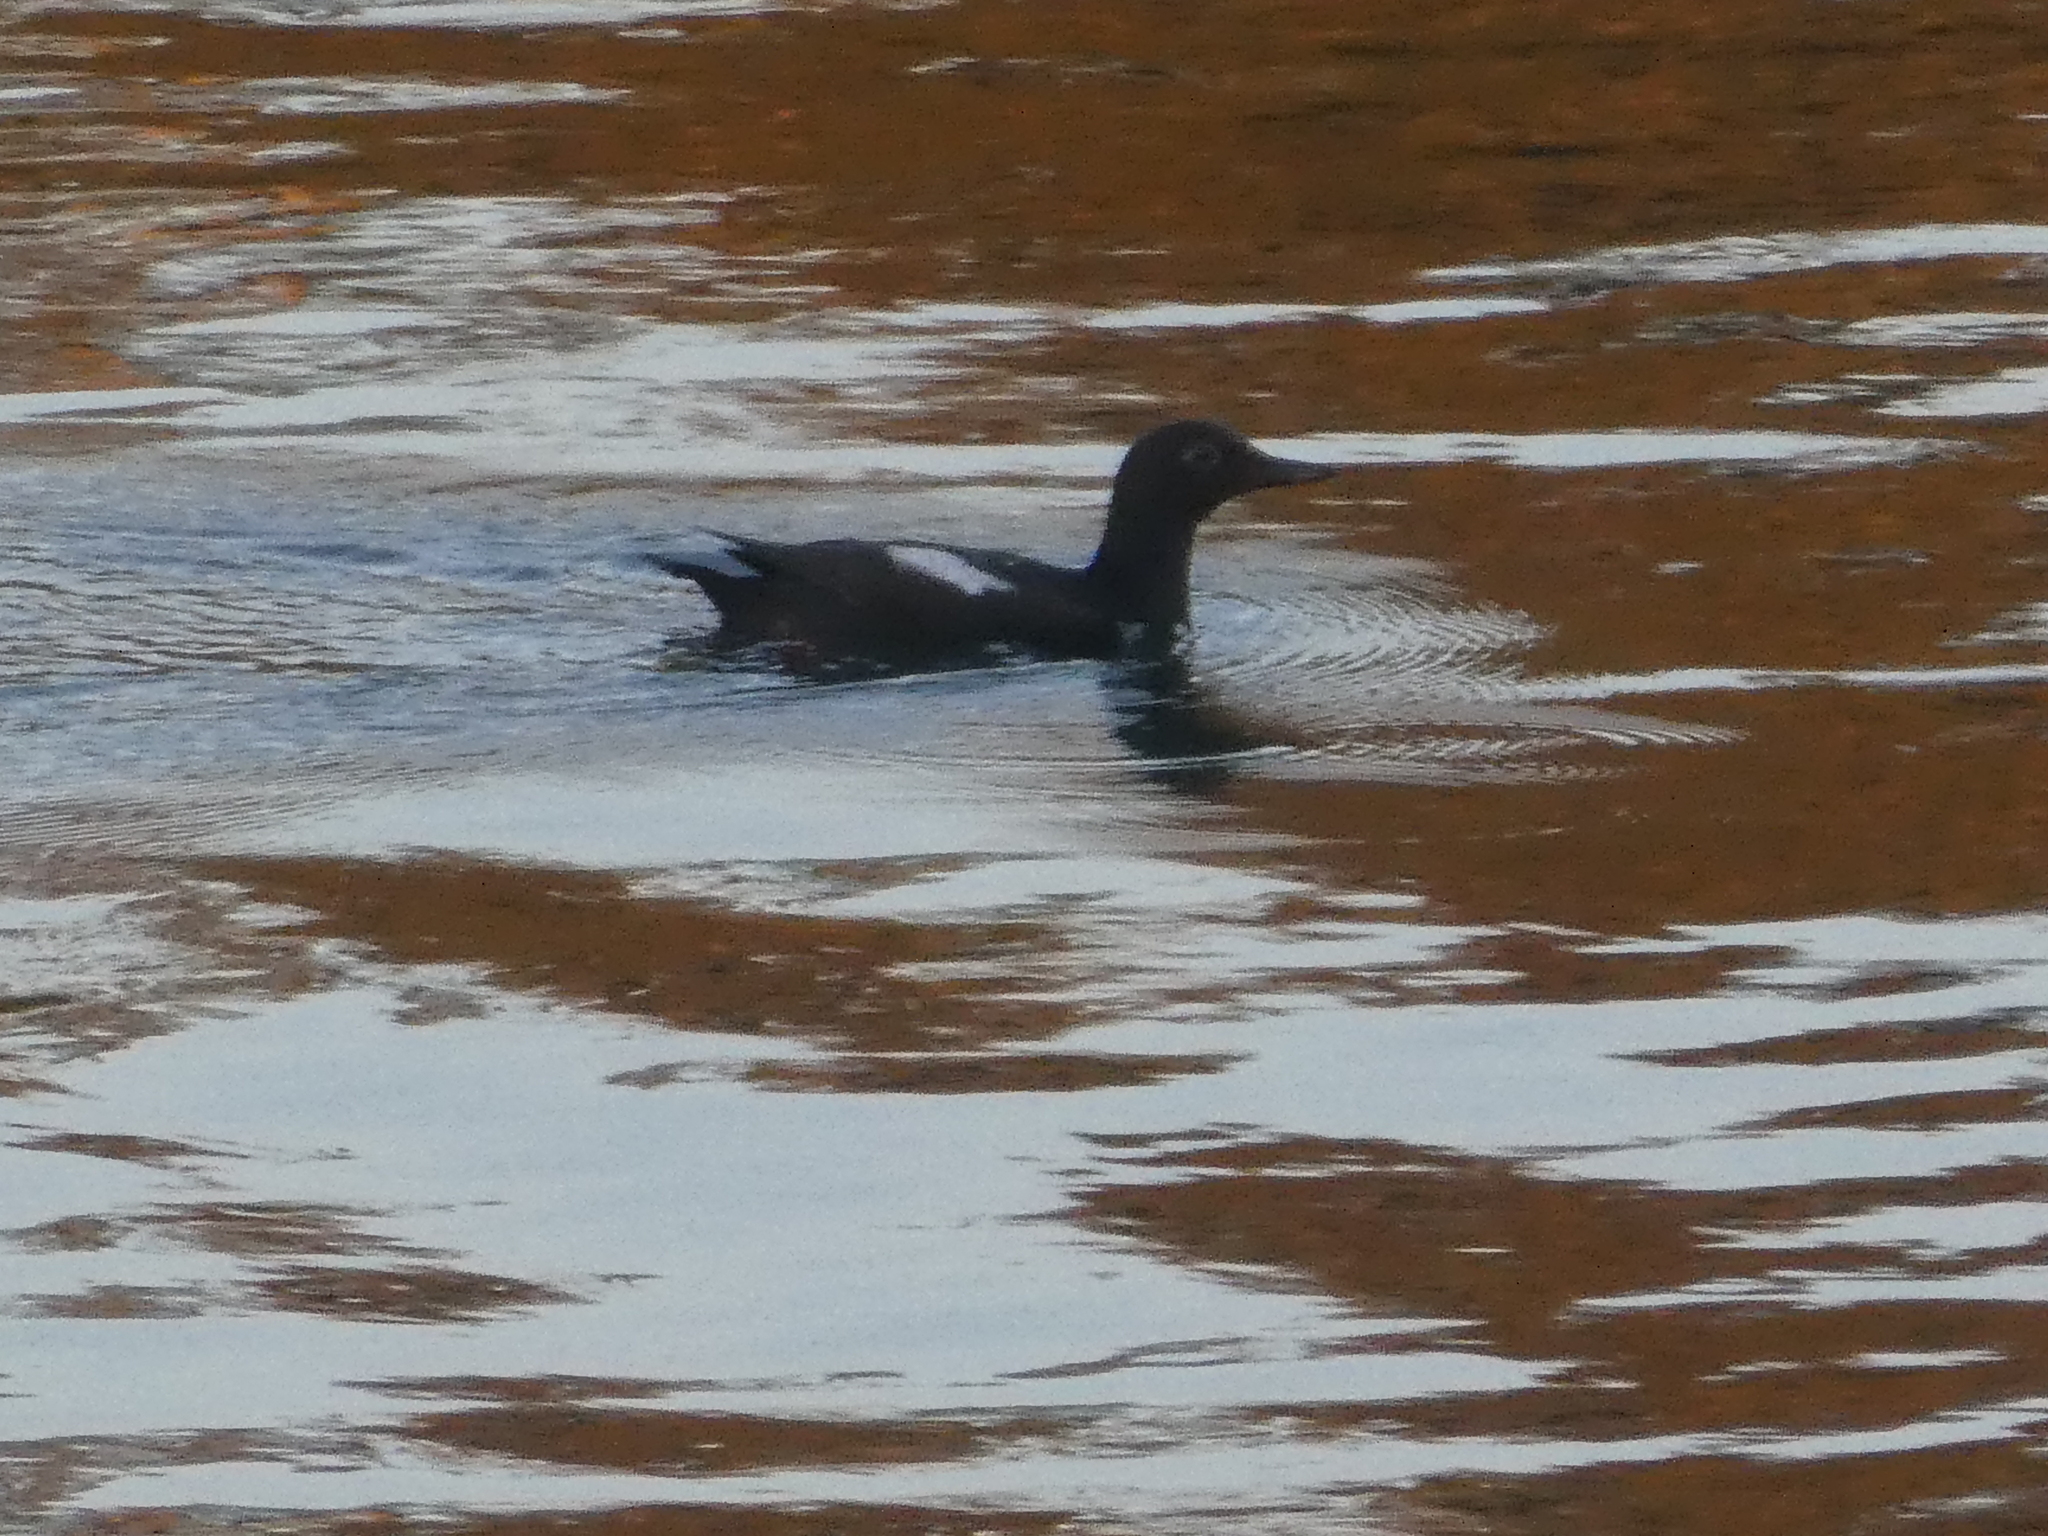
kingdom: Animalia
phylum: Chordata
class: Aves
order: Charadriiformes
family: Alcidae
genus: Cepphus
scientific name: Cepphus columba
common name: Pigeon guillemot
